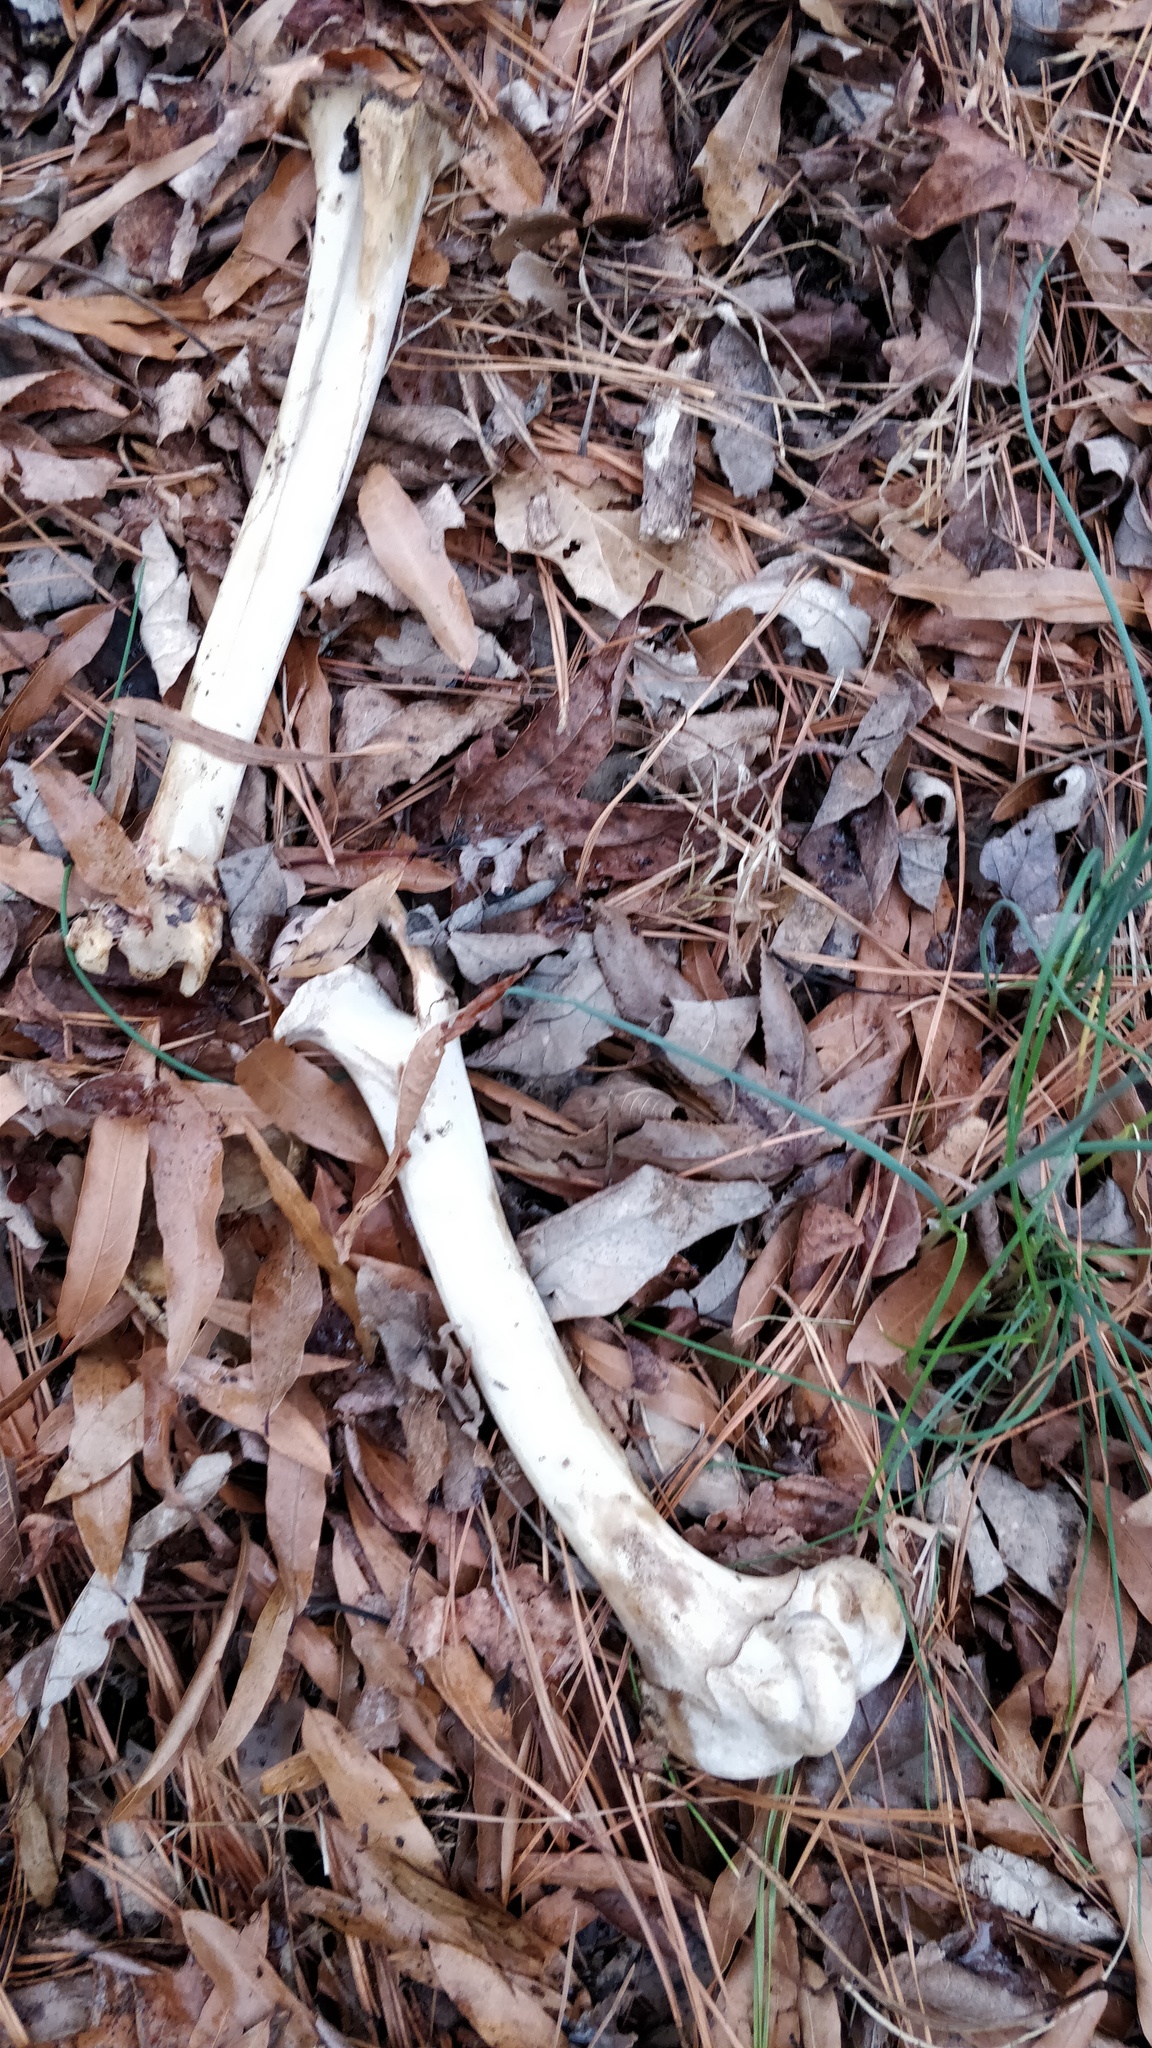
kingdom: Animalia
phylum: Chordata
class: Mammalia
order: Artiodactyla
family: Cervidae
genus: Odocoileus
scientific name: Odocoileus virginianus
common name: White-tailed deer
